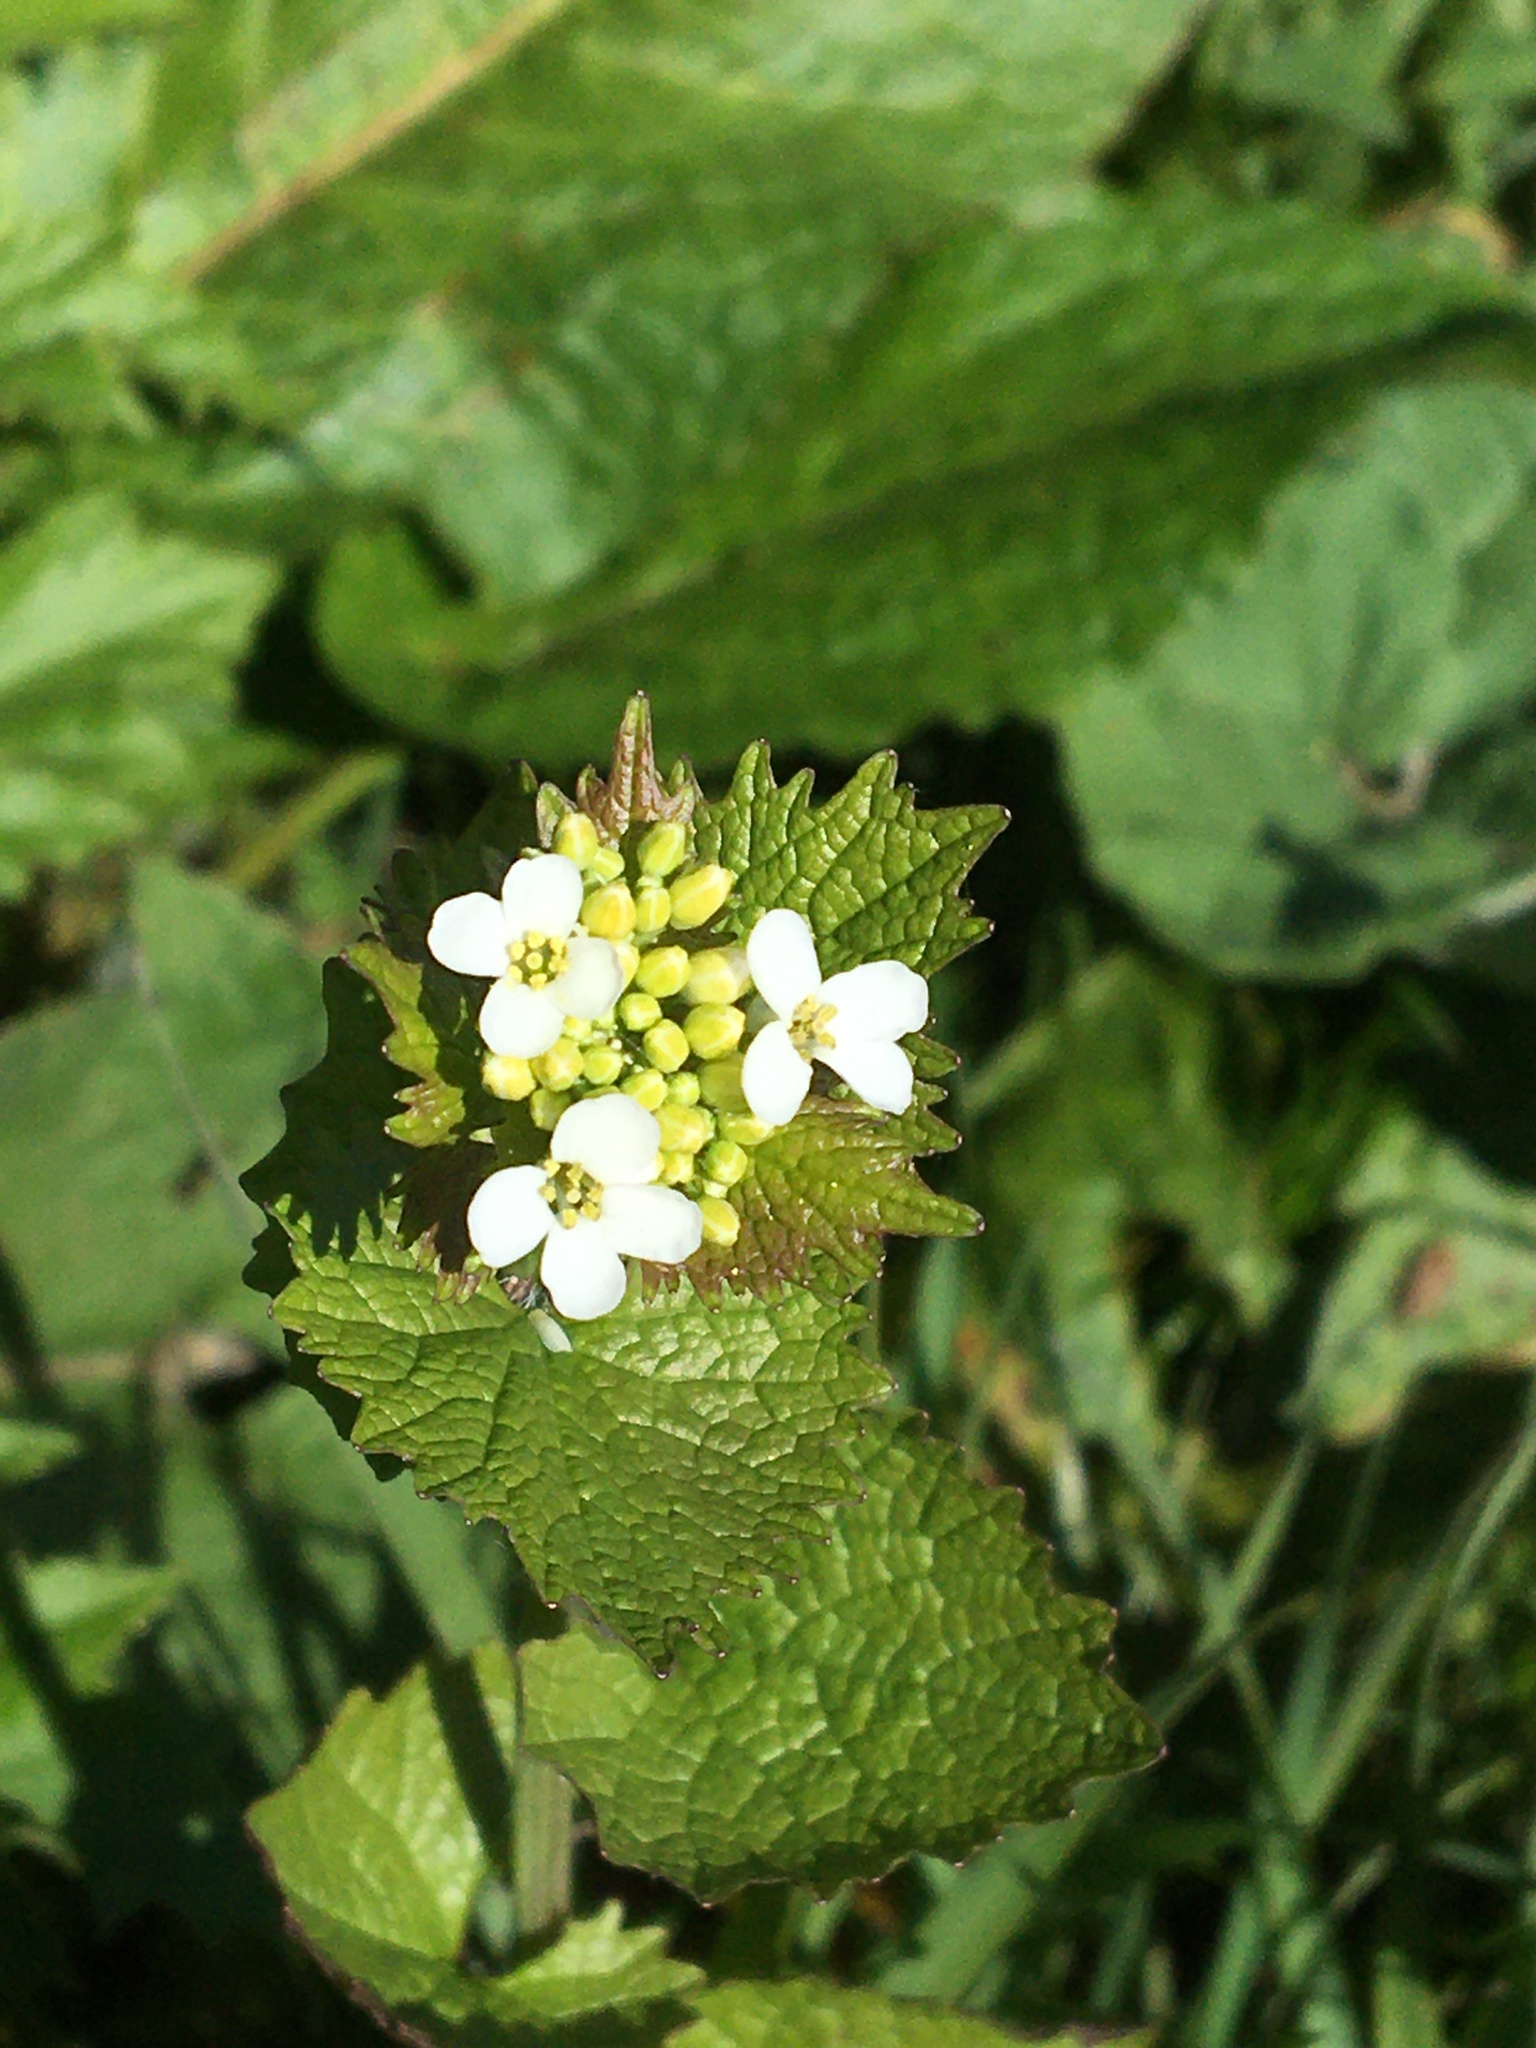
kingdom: Plantae
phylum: Tracheophyta
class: Magnoliopsida
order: Brassicales
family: Brassicaceae
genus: Alliaria
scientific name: Alliaria petiolata
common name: Garlic mustard
